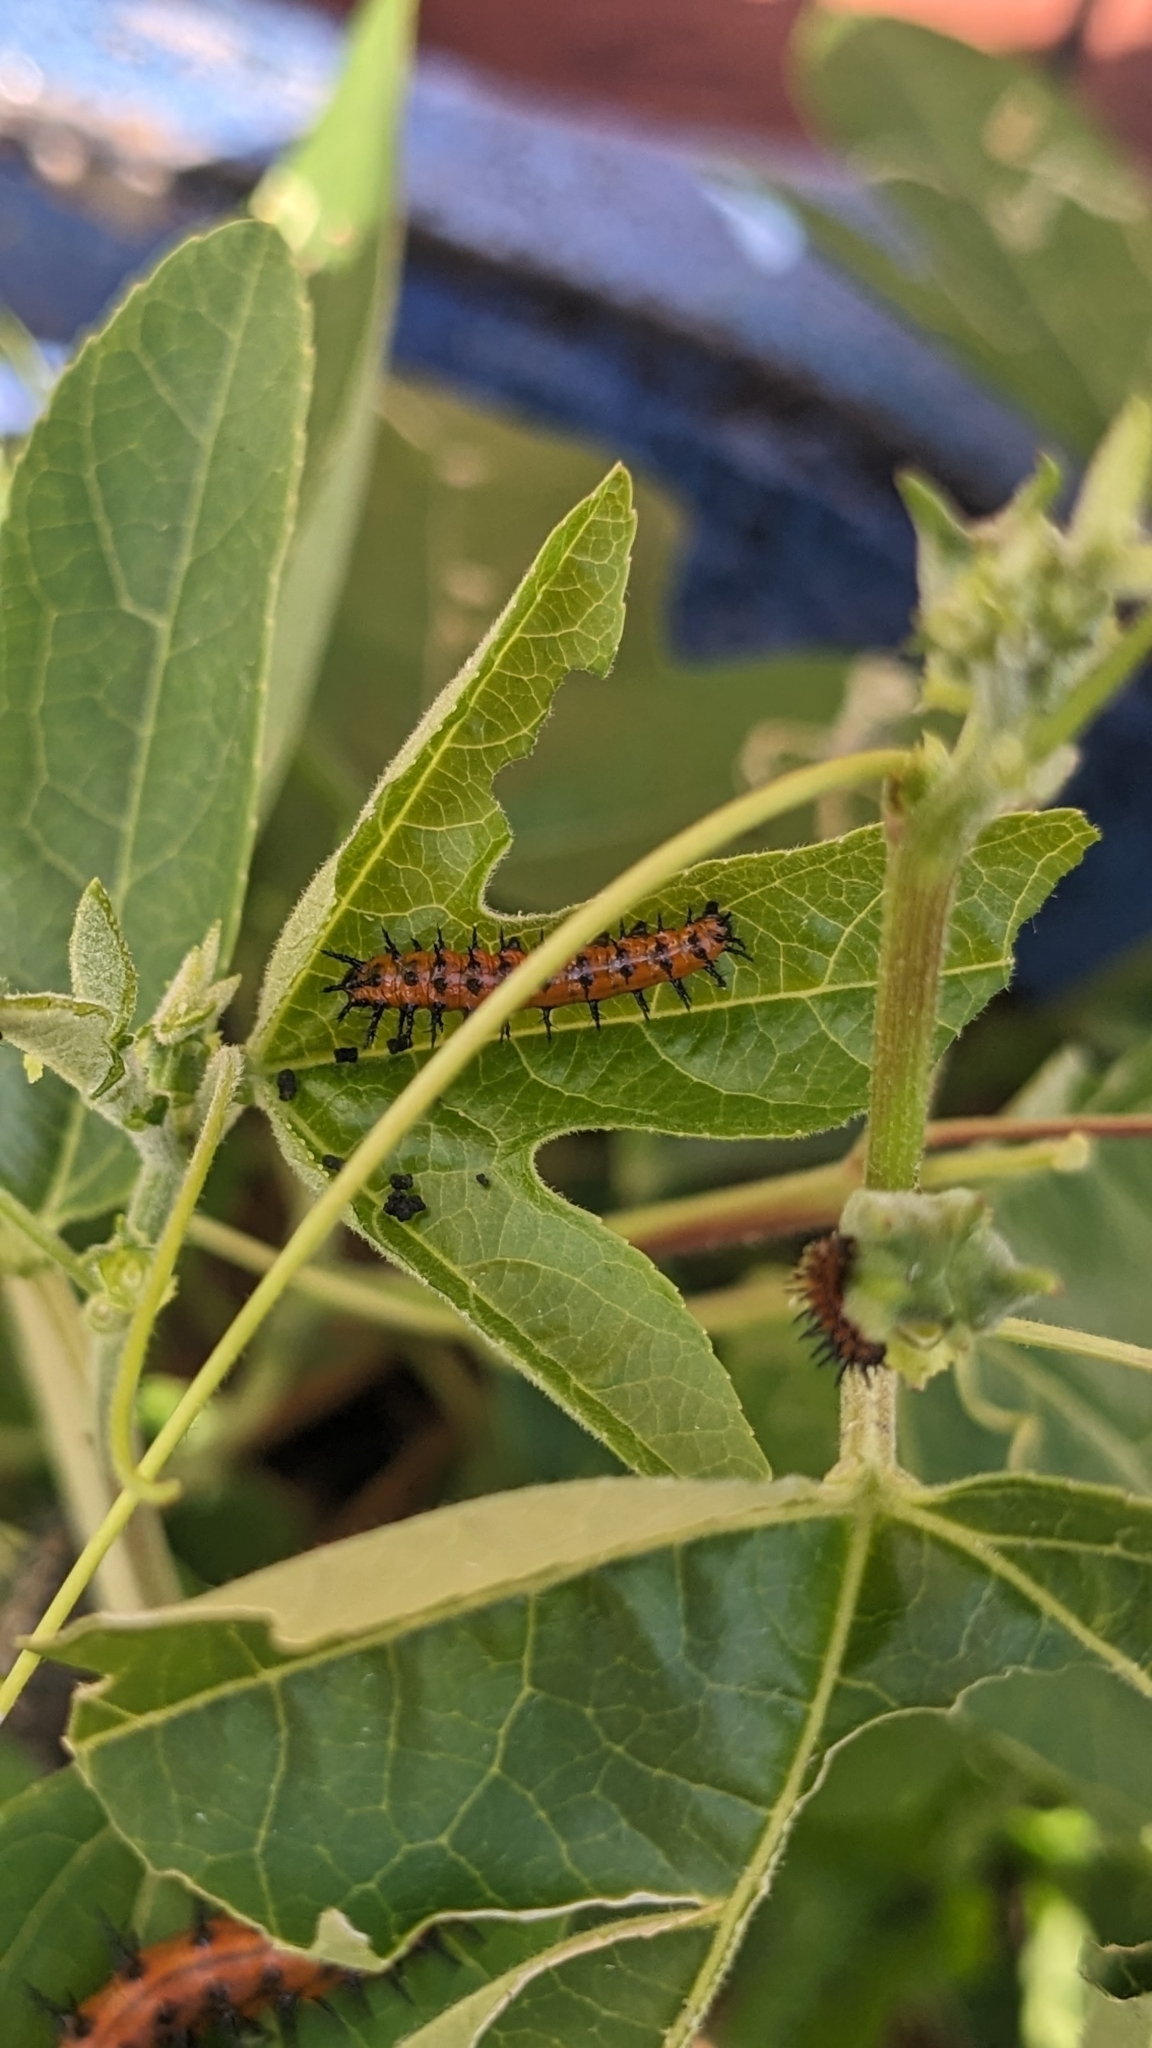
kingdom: Animalia
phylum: Arthropoda
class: Insecta
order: Lepidoptera
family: Nymphalidae
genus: Dione
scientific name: Dione vanillae
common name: Gulf fritillary
